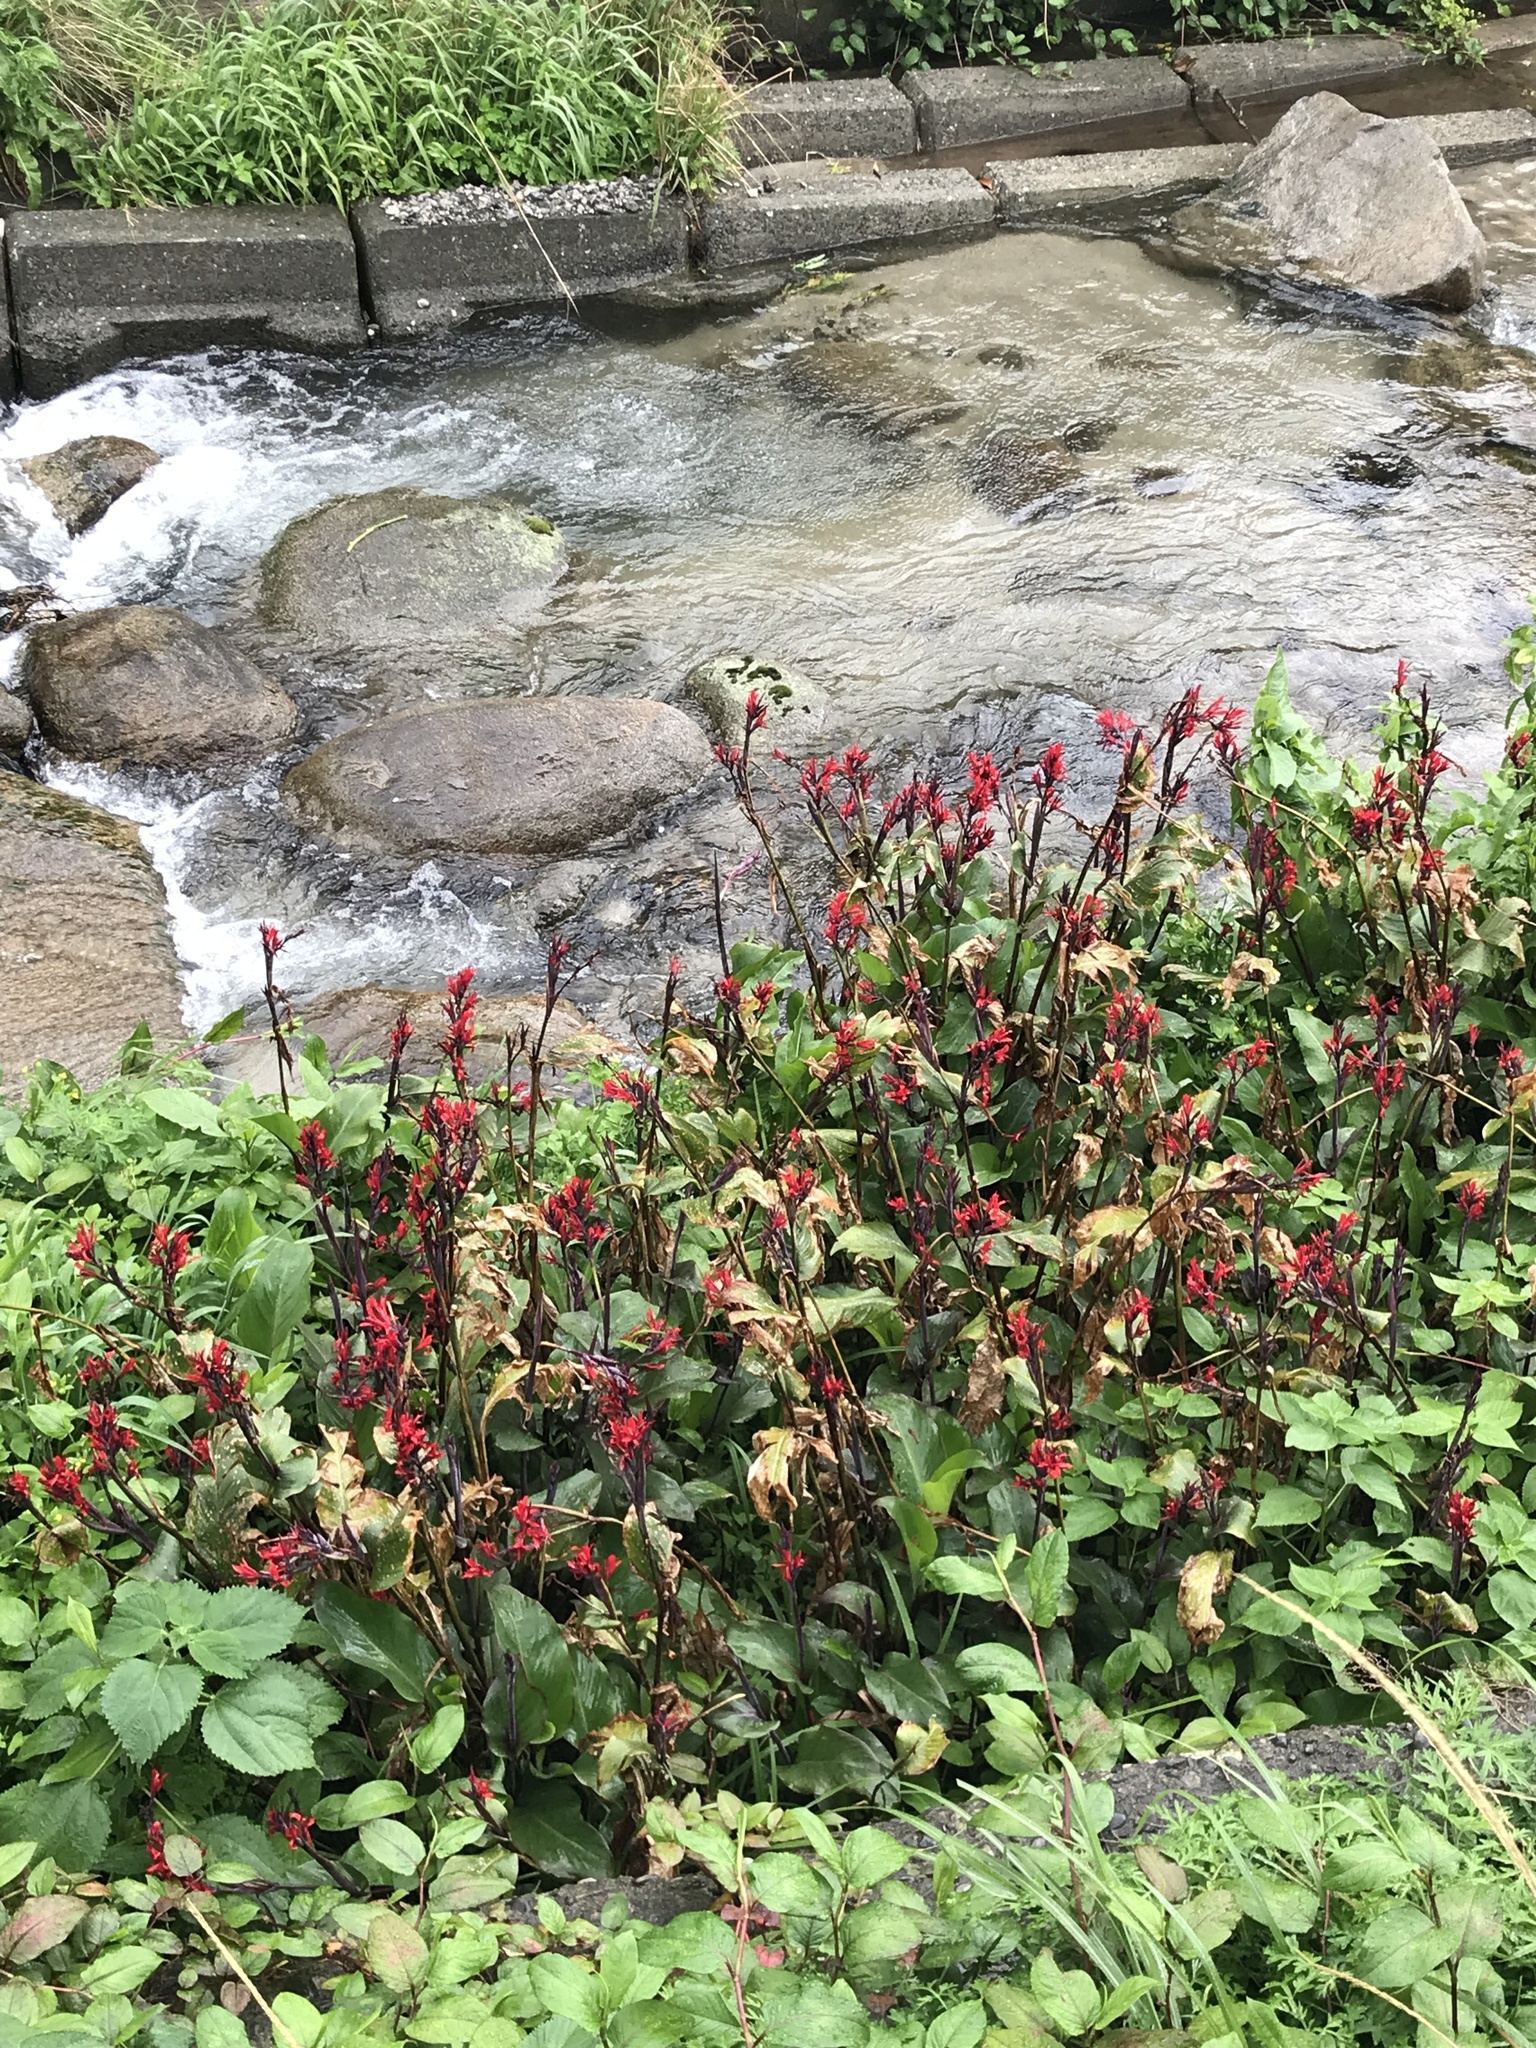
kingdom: Plantae
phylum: Tracheophyta
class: Liliopsida
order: Zingiberales
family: Cannaceae
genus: Canna
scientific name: Canna indica
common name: Indian shot
